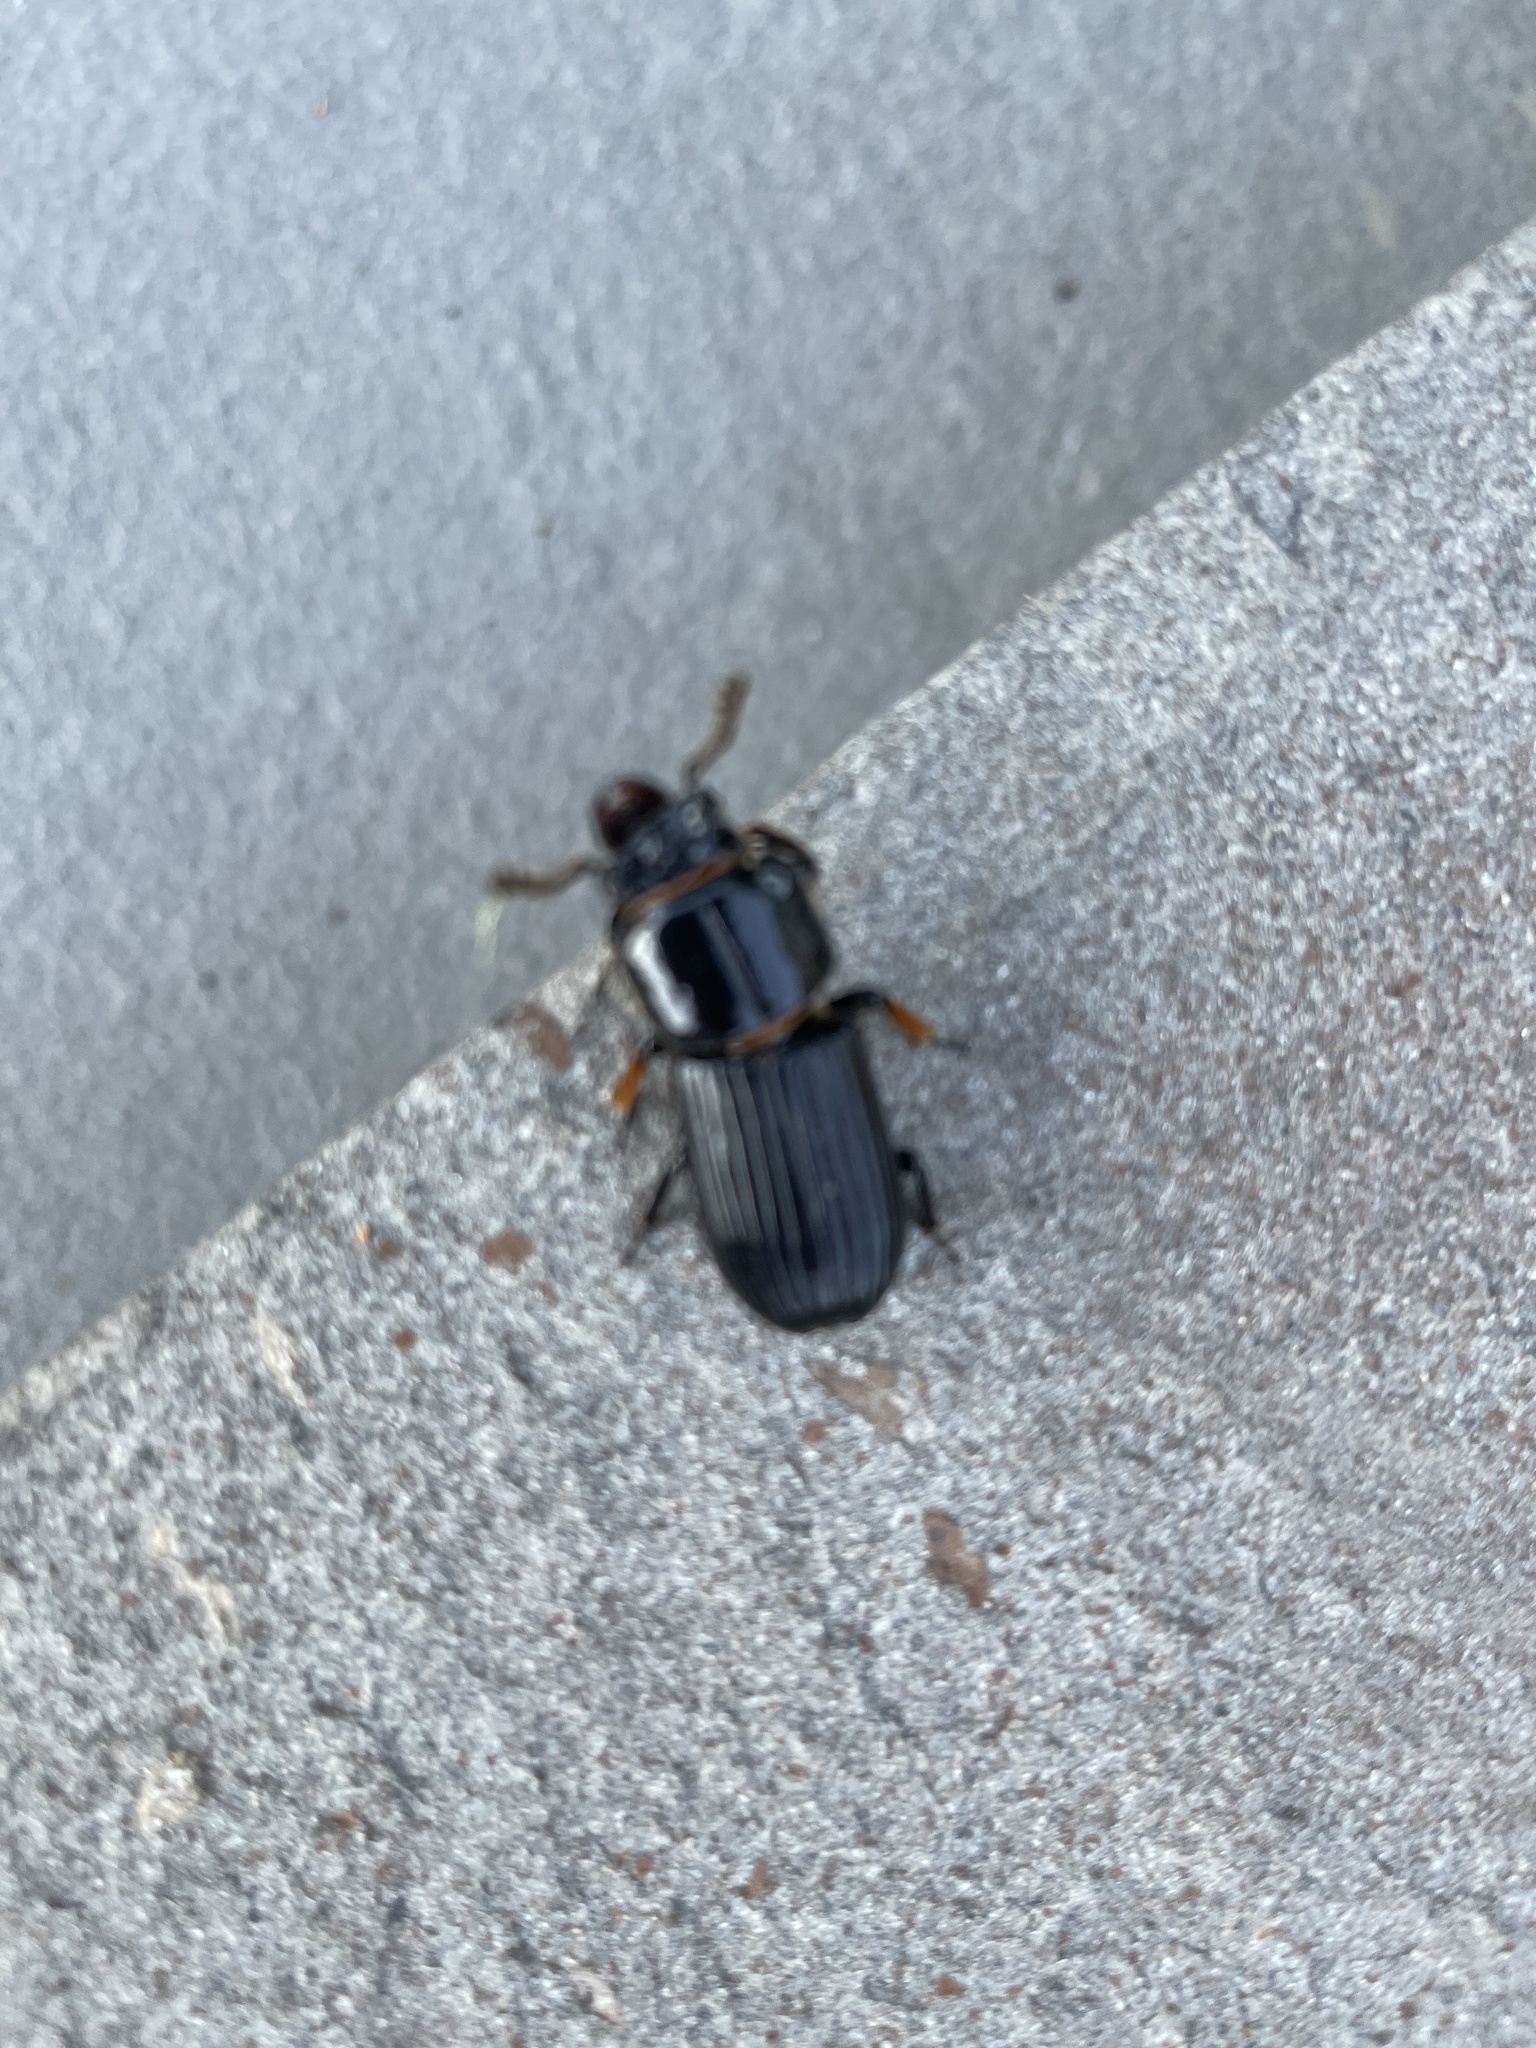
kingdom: Animalia
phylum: Arthropoda
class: Insecta
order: Coleoptera
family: Passalidae
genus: Odontotaenius
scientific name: Odontotaenius disjunctus
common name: Patent leather beetle
